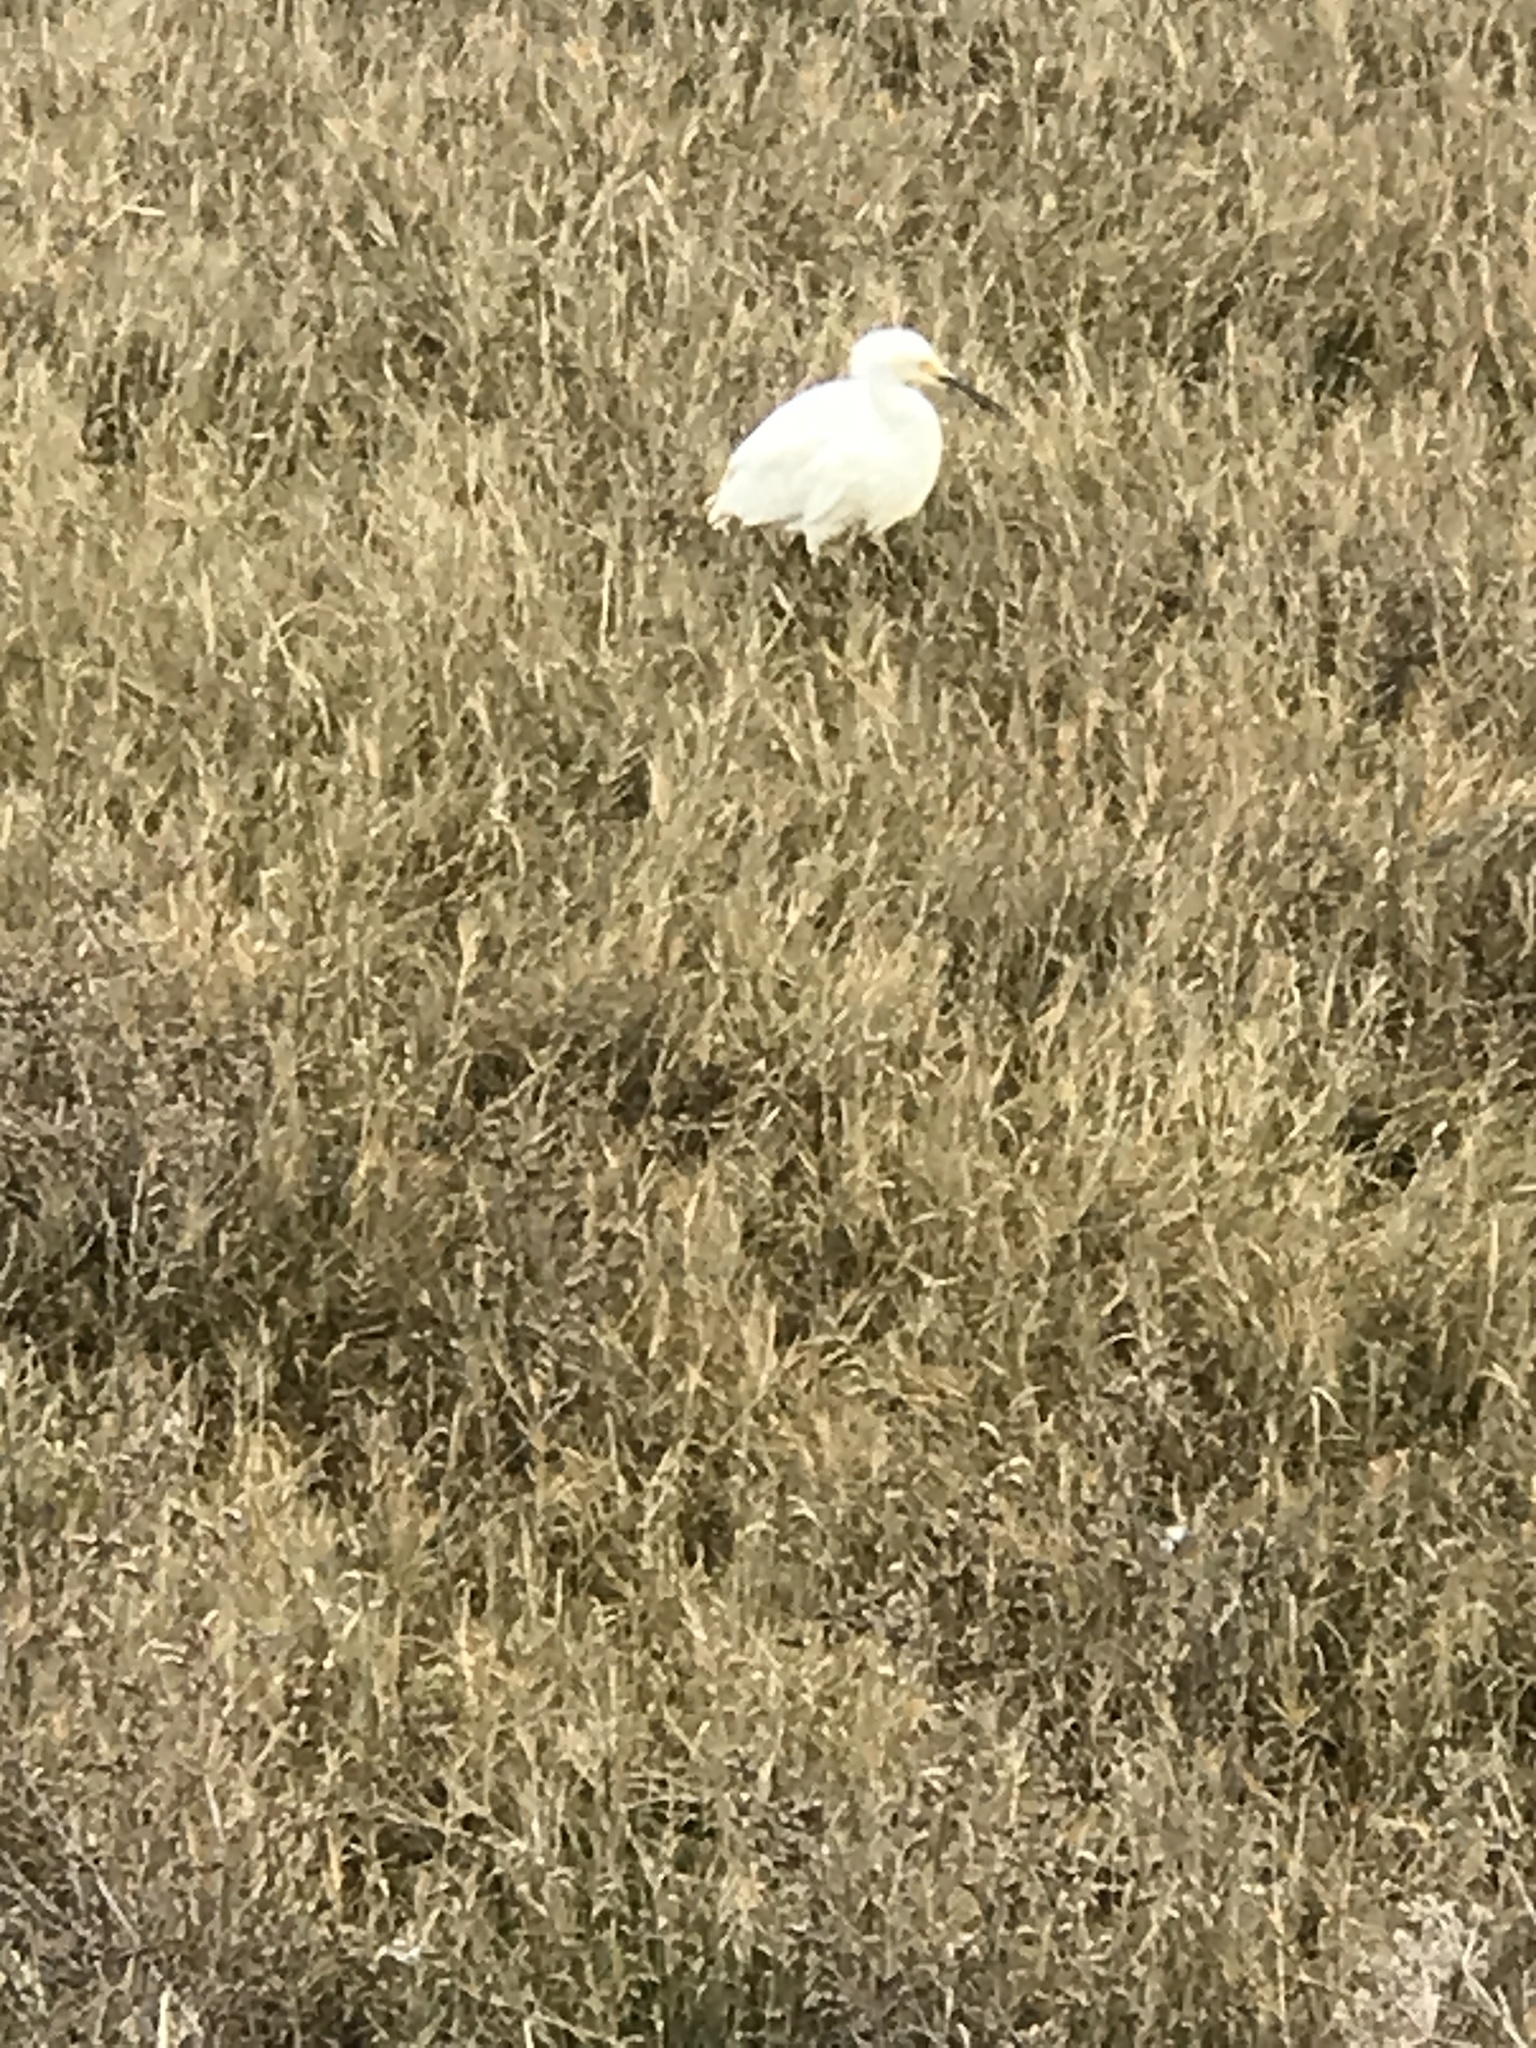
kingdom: Animalia
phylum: Chordata
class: Aves
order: Pelecaniformes
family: Ardeidae
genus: Egretta
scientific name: Egretta thula
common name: Snowy egret
